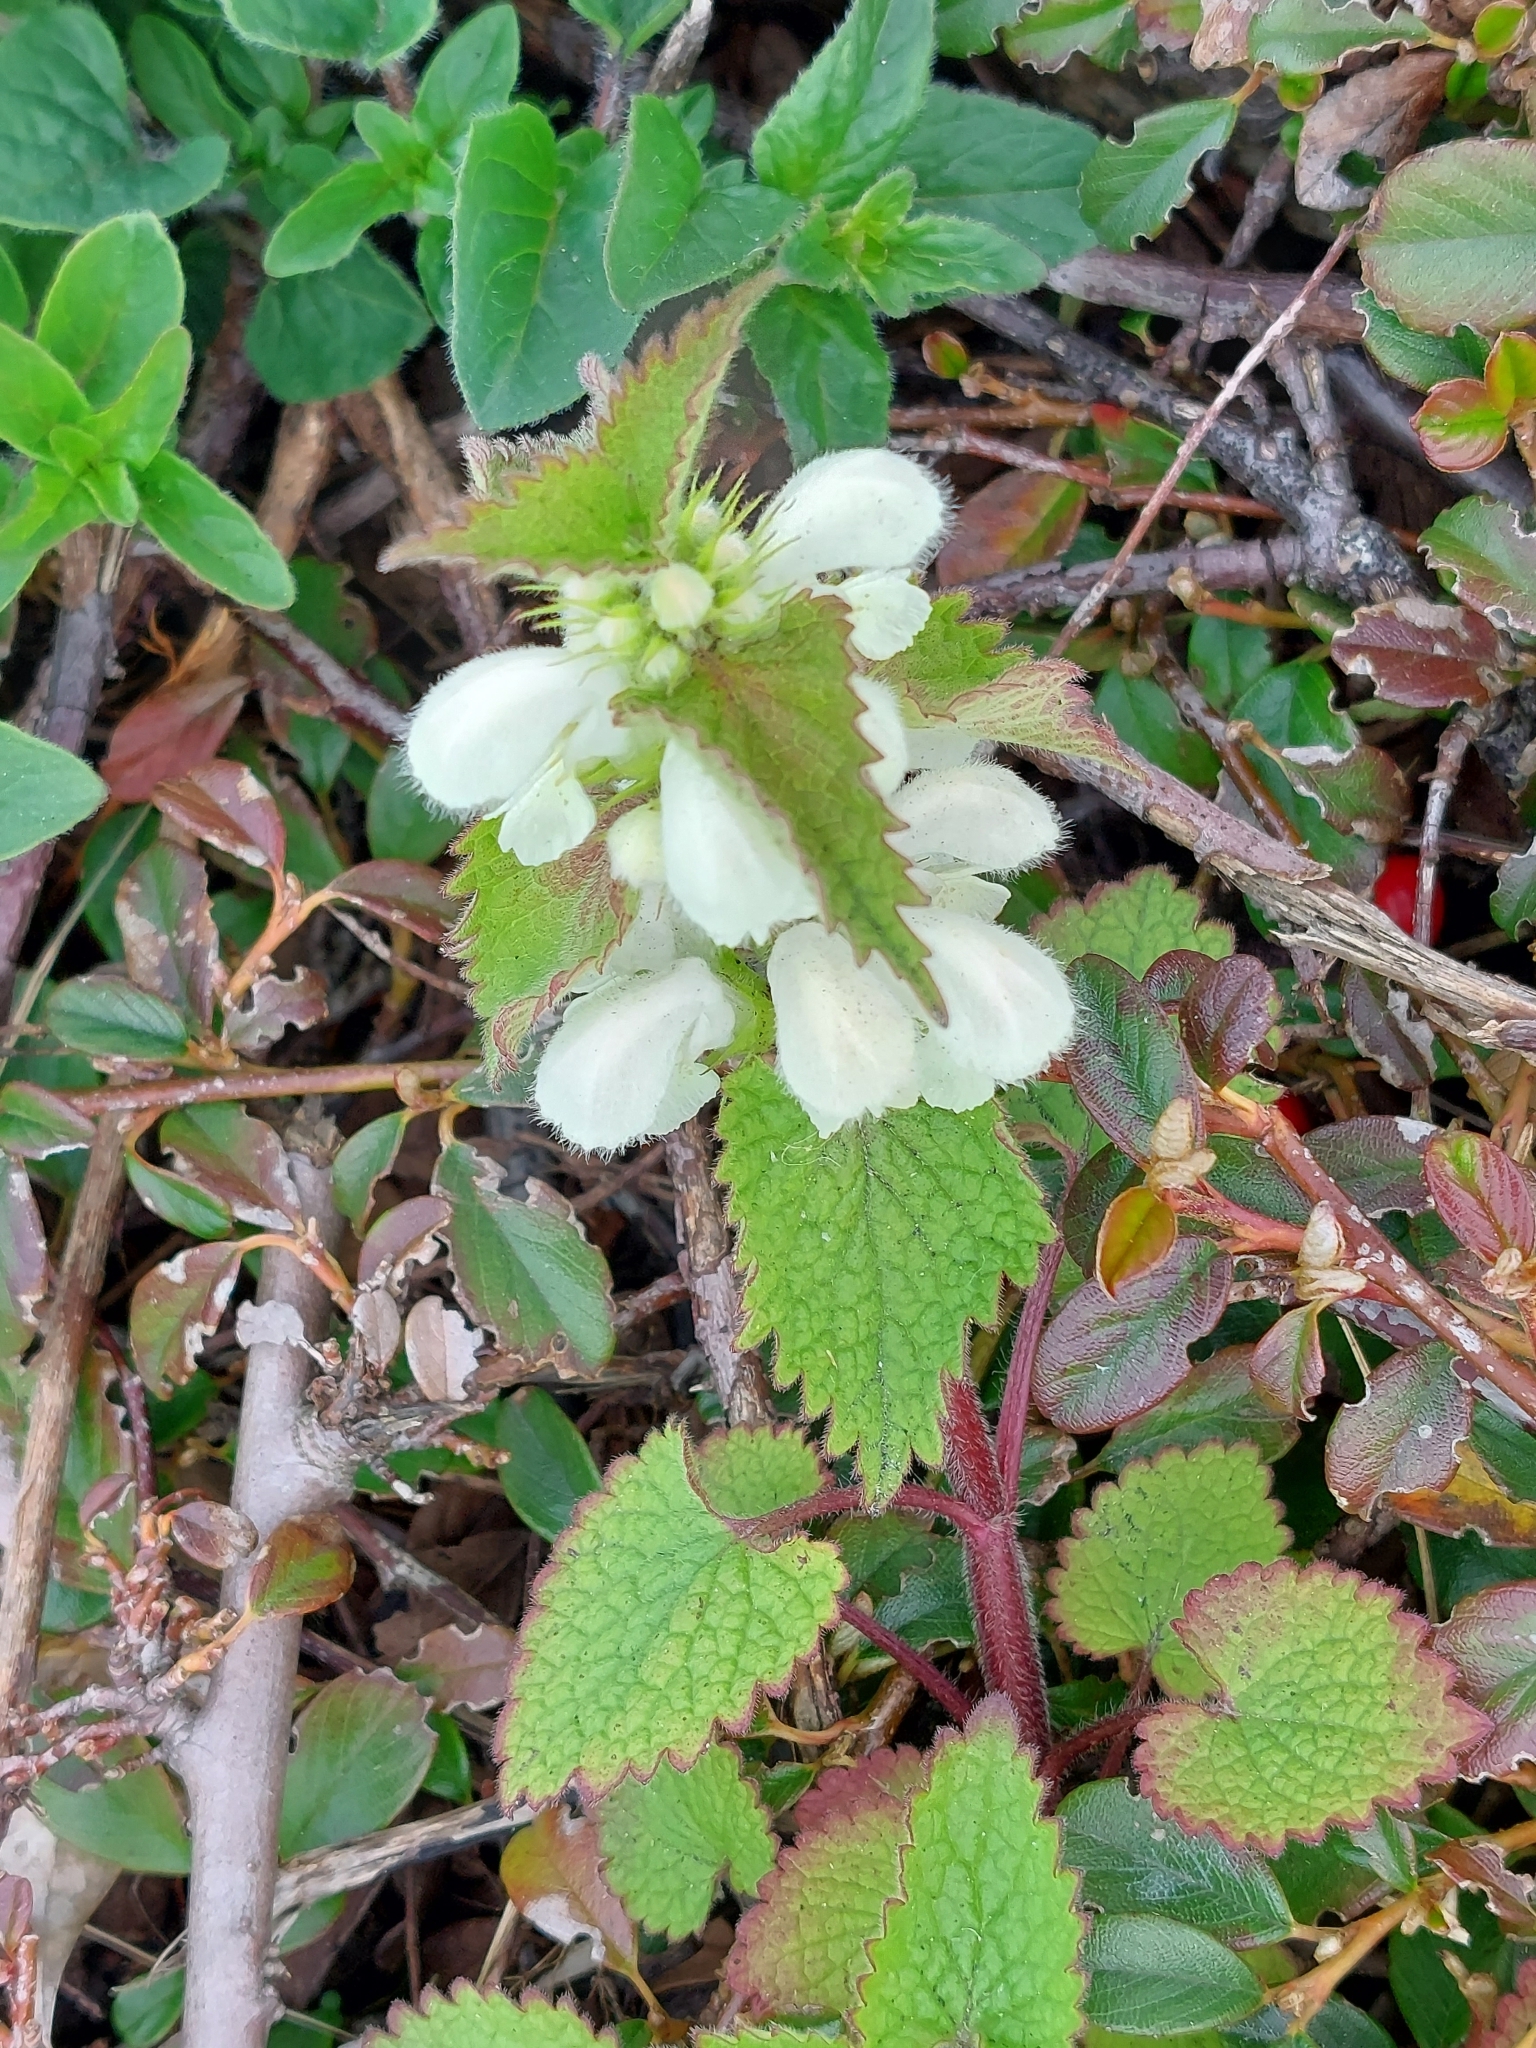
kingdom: Plantae
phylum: Tracheophyta
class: Magnoliopsida
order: Lamiales
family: Lamiaceae
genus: Lamium
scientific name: Lamium album
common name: White dead-nettle
